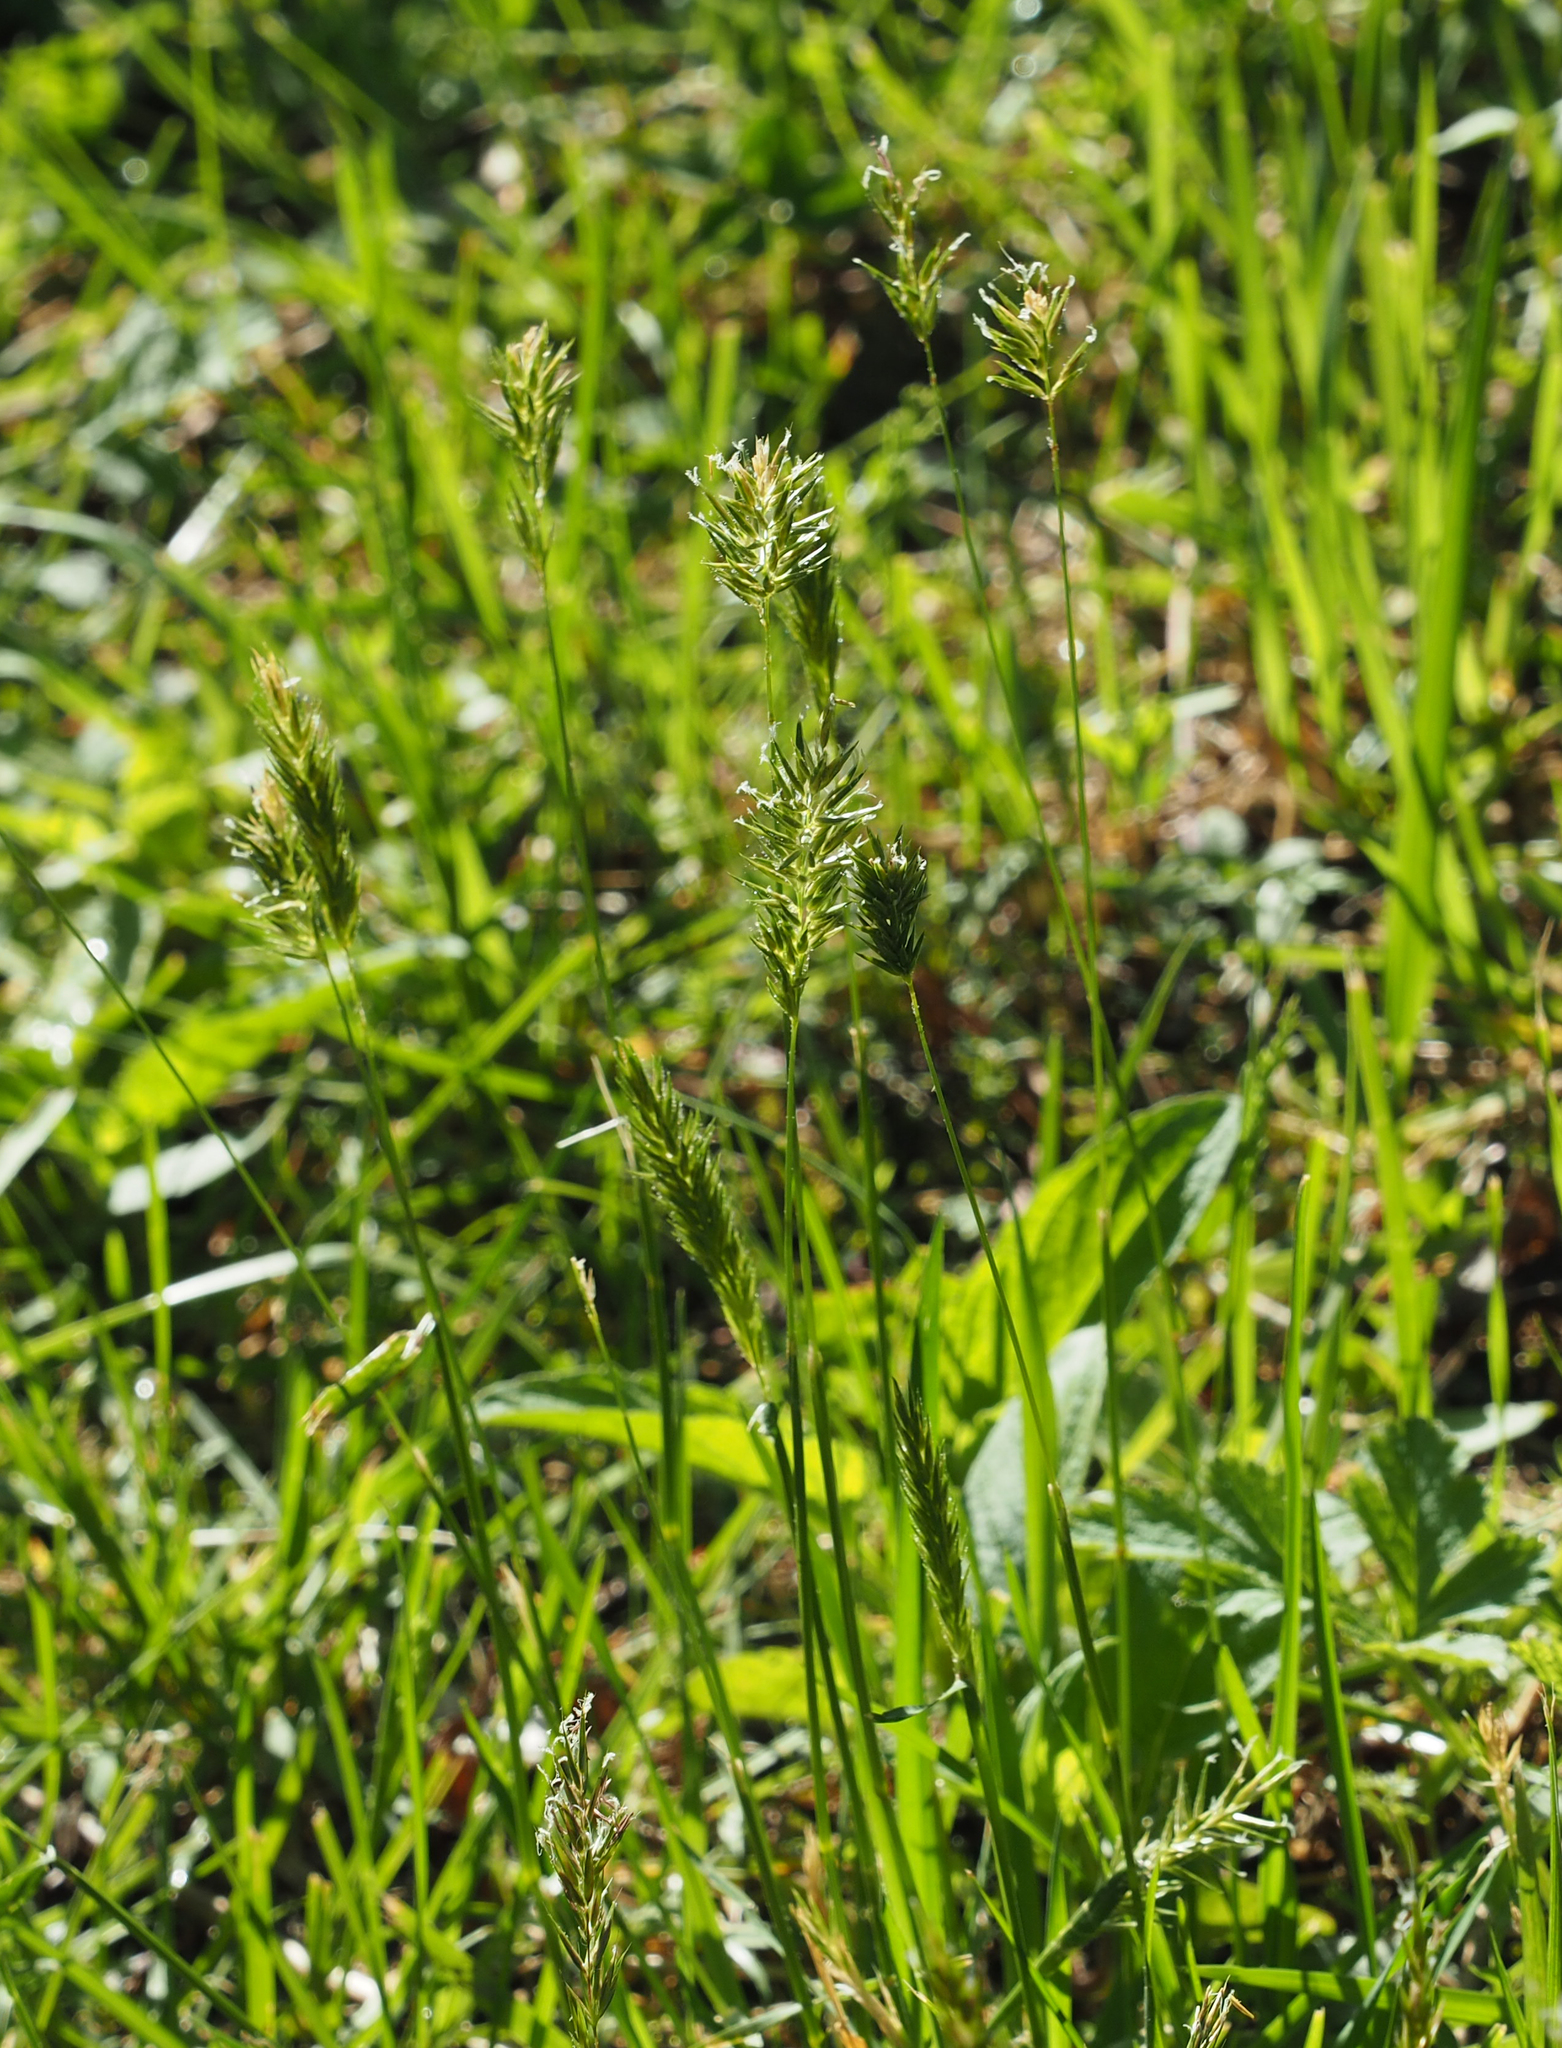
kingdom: Plantae
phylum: Tracheophyta
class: Liliopsida
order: Poales
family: Poaceae
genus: Anthoxanthum
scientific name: Anthoxanthum odoratum
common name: Sweet vernalgrass
